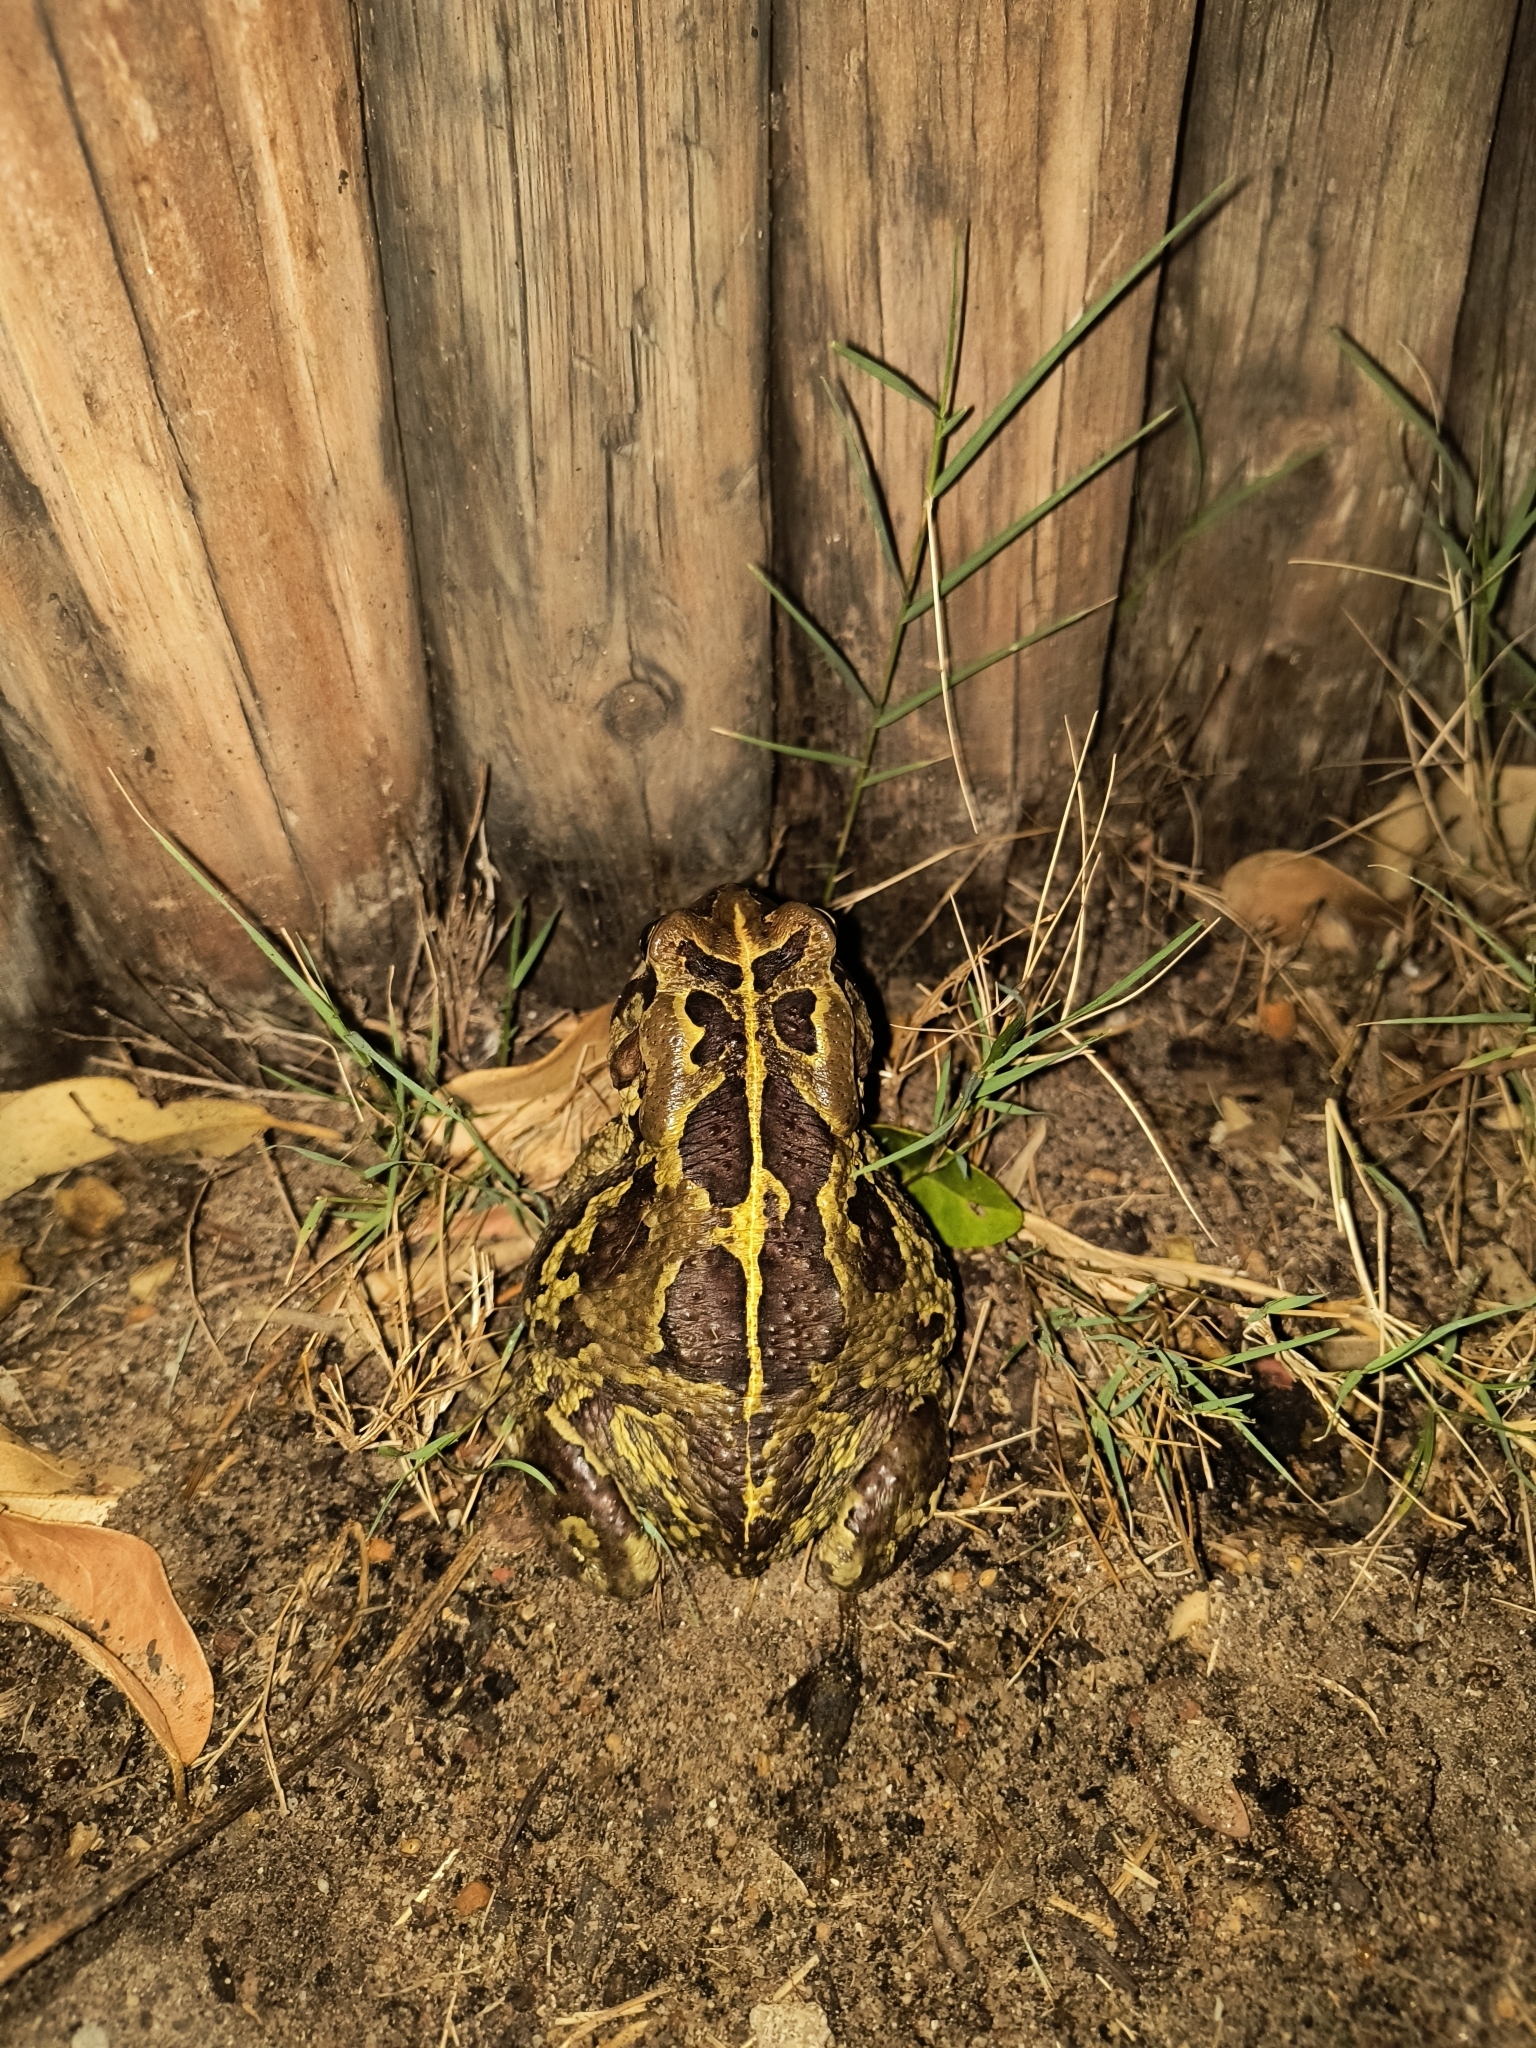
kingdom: Animalia
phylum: Chordata
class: Amphibia
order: Anura
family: Bufonidae
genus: Sclerophrys
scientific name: Sclerophrys pantherina
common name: Panther toad
